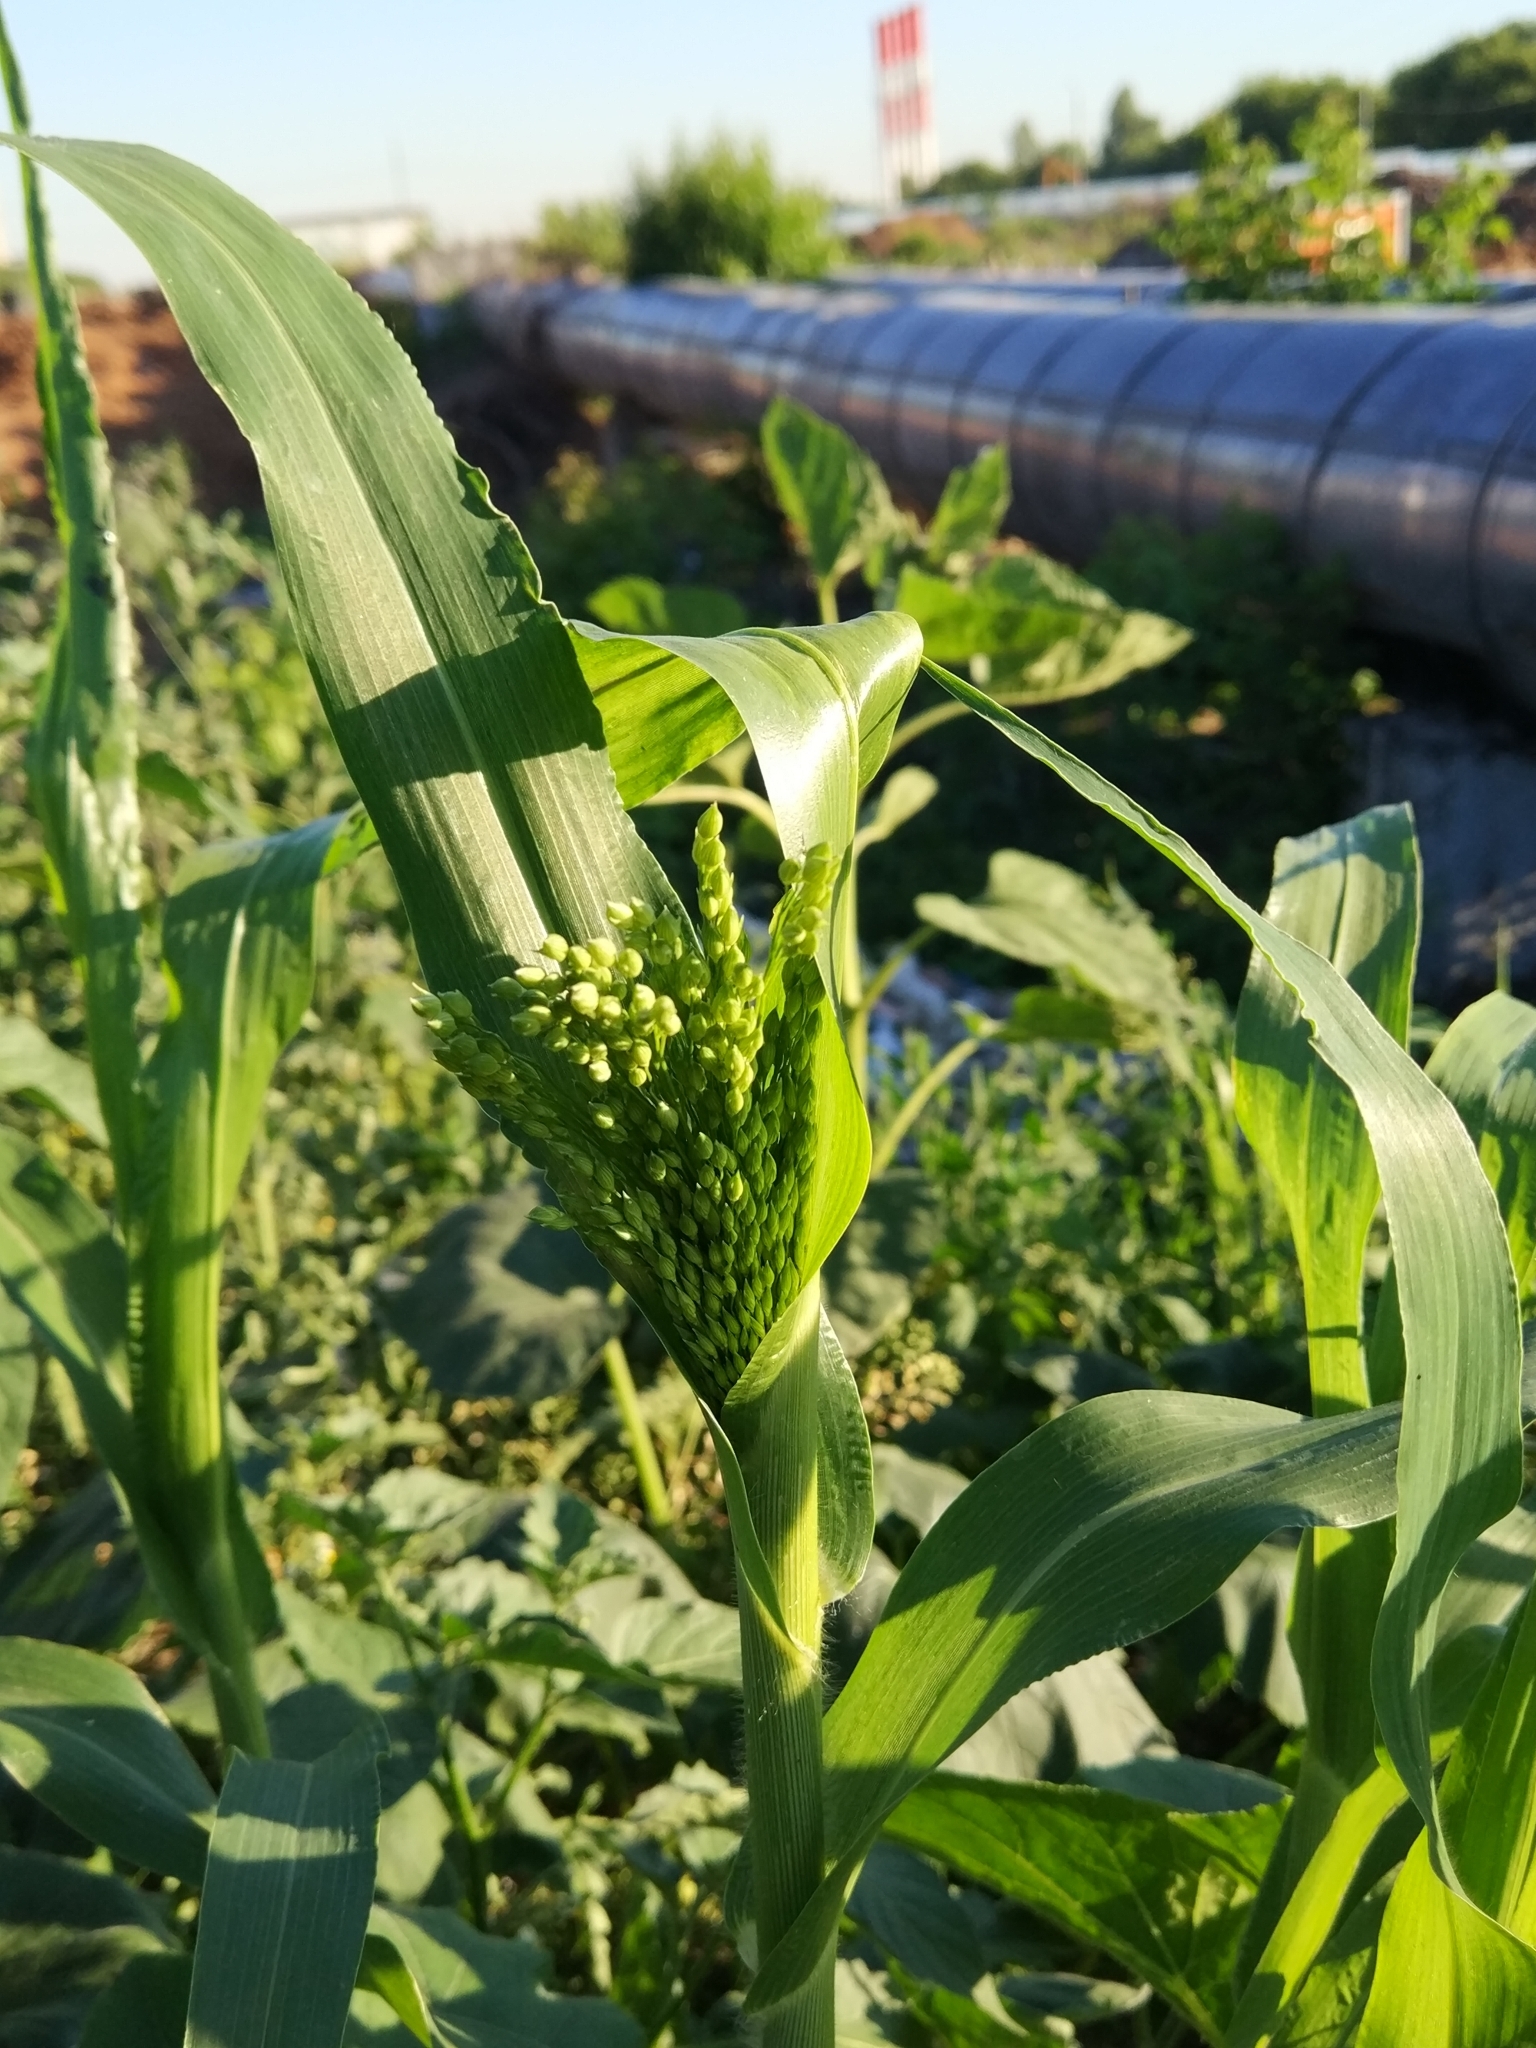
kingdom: Plantae
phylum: Tracheophyta
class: Liliopsida
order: Poales
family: Poaceae
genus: Zea
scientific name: Zea mays
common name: Maize
